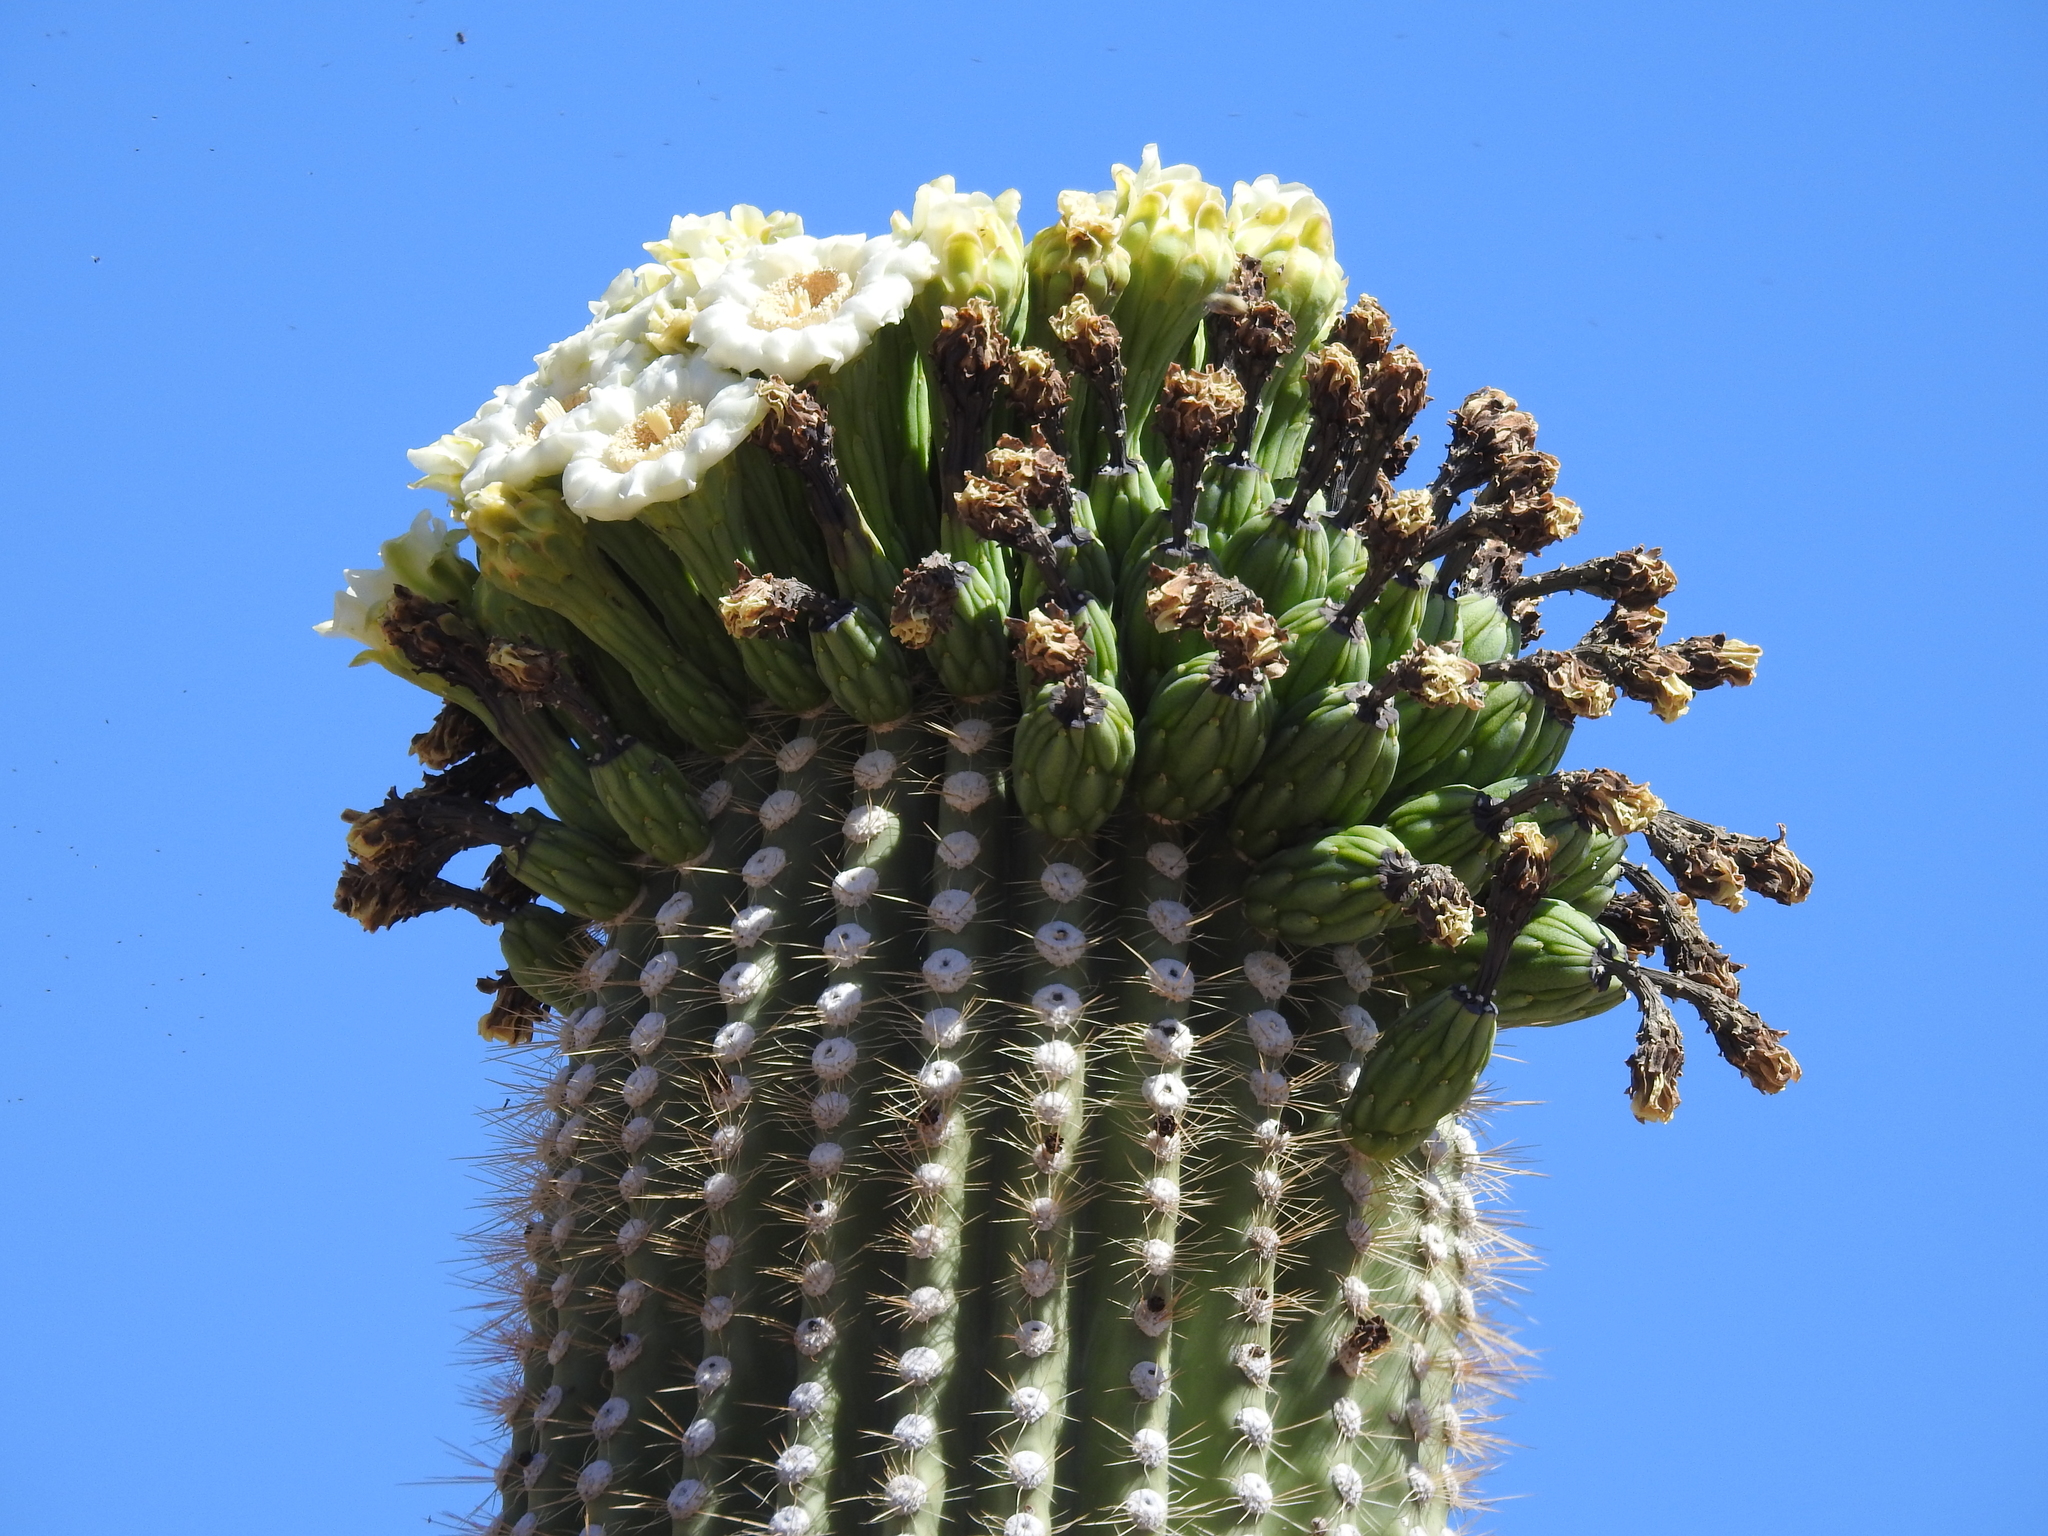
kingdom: Plantae
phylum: Tracheophyta
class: Magnoliopsida
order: Caryophyllales
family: Cactaceae
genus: Carnegiea
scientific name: Carnegiea gigantea
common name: Saguaro
